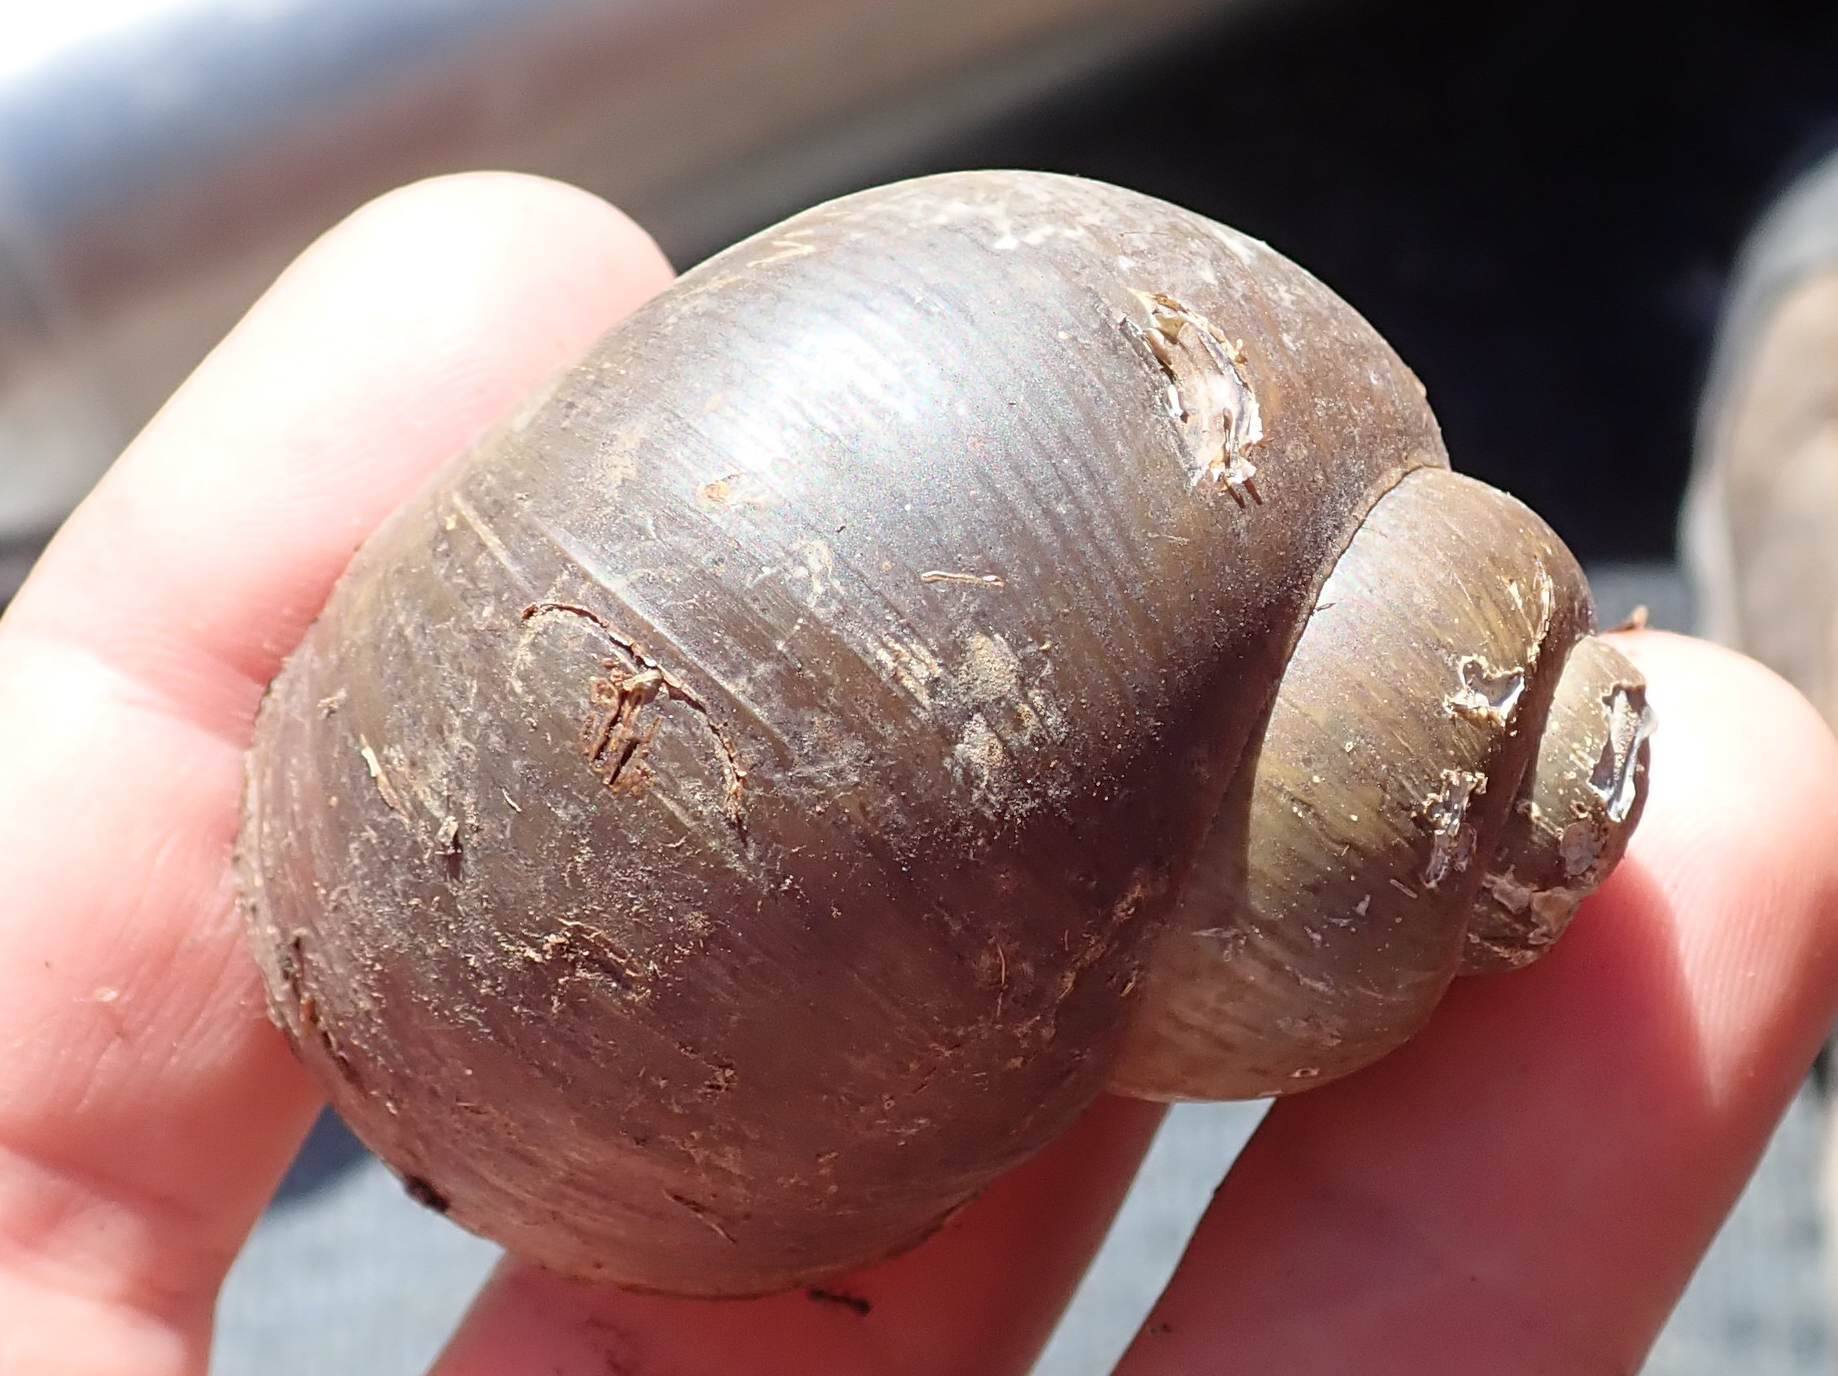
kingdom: Animalia
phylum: Mollusca
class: Gastropoda
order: Architaenioglossa
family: Ampullariidae
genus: Lanistes
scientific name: Lanistes ovum
